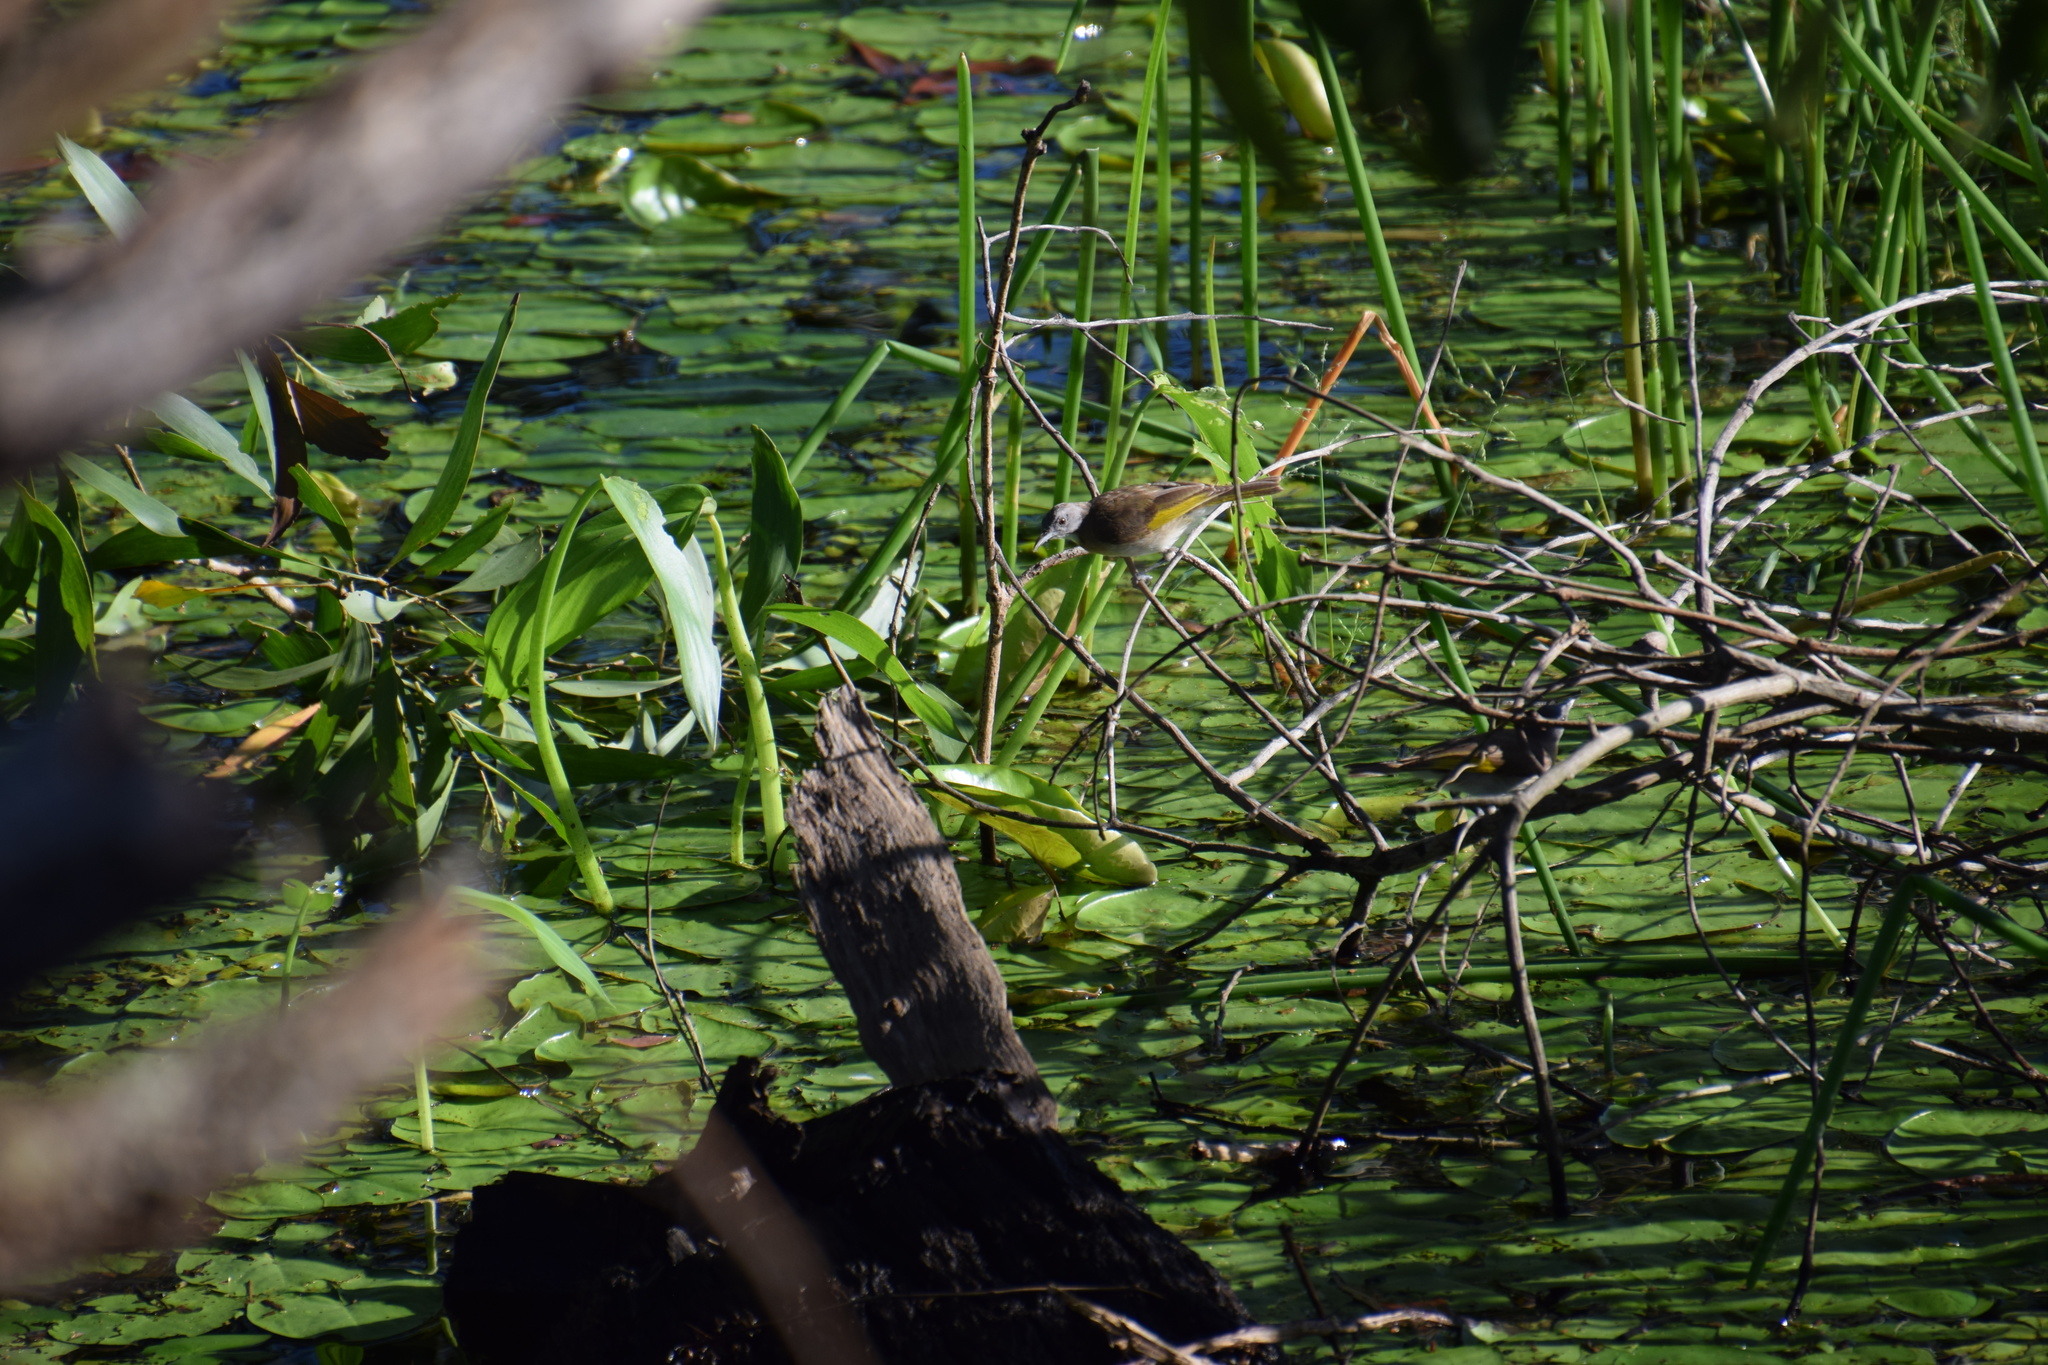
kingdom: Animalia
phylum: Chordata
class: Aves
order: Passeriformes
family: Meliphagidae
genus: Conopophila
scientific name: Conopophila albogularis
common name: Rufous-banded honeyeater
